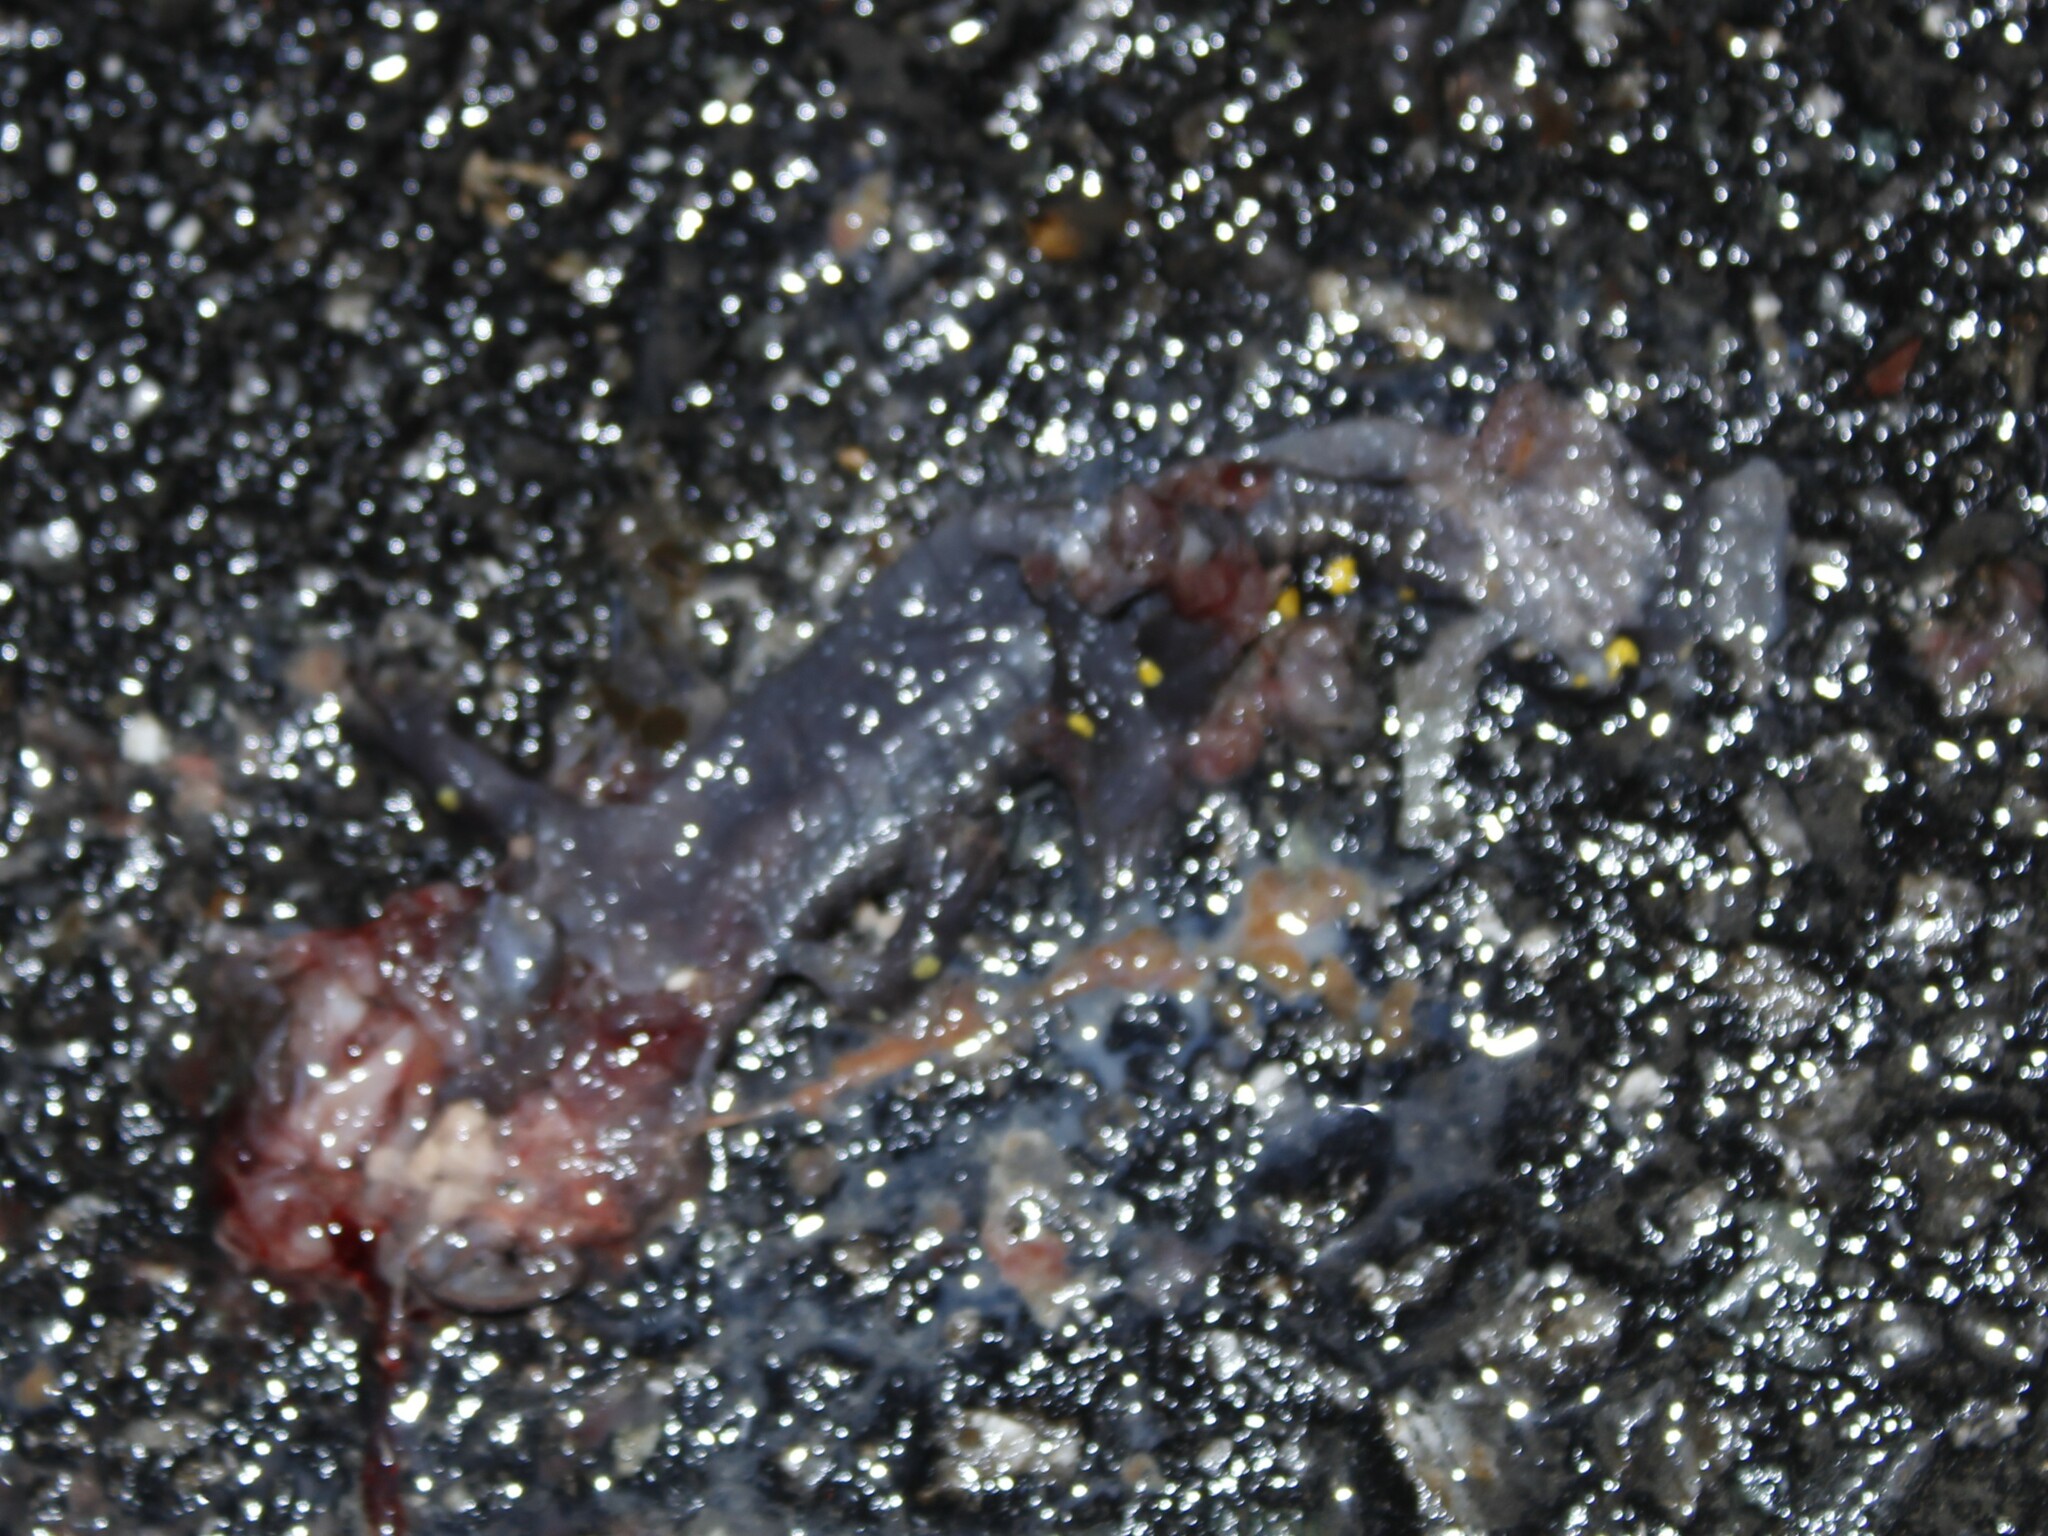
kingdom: Animalia
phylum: Chordata
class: Amphibia
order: Caudata
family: Ambystomatidae
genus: Ambystoma
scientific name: Ambystoma maculatum
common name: Spotted salamander
